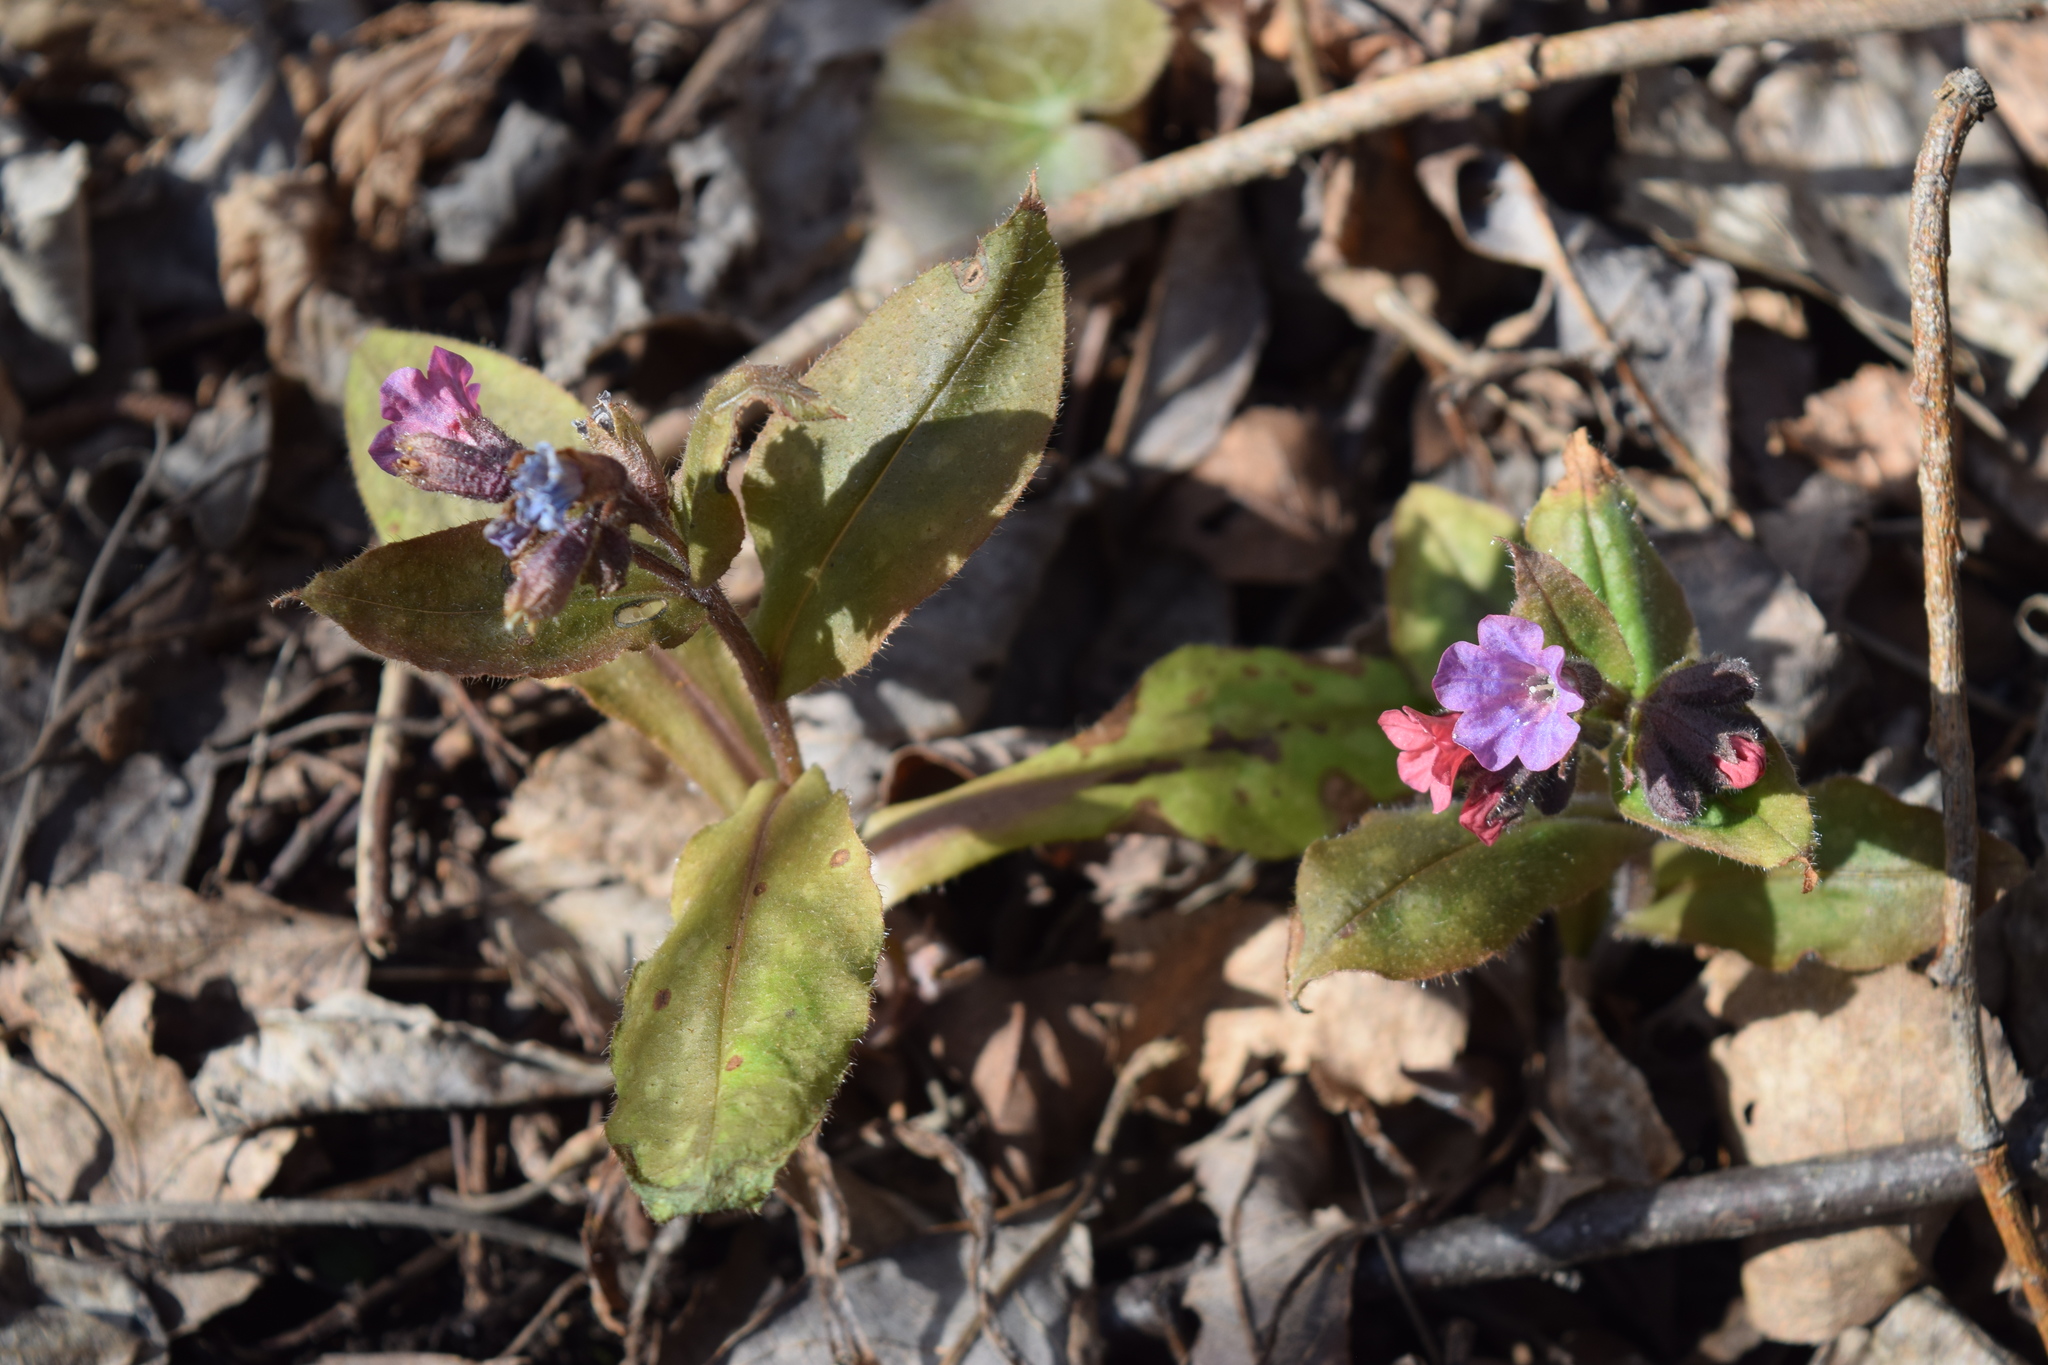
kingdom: Plantae
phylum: Tracheophyta
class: Magnoliopsida
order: Boraginales
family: Boraginaceae
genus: Pulmonaria
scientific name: Pulmonaria obscura
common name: Suffolk lungwort
